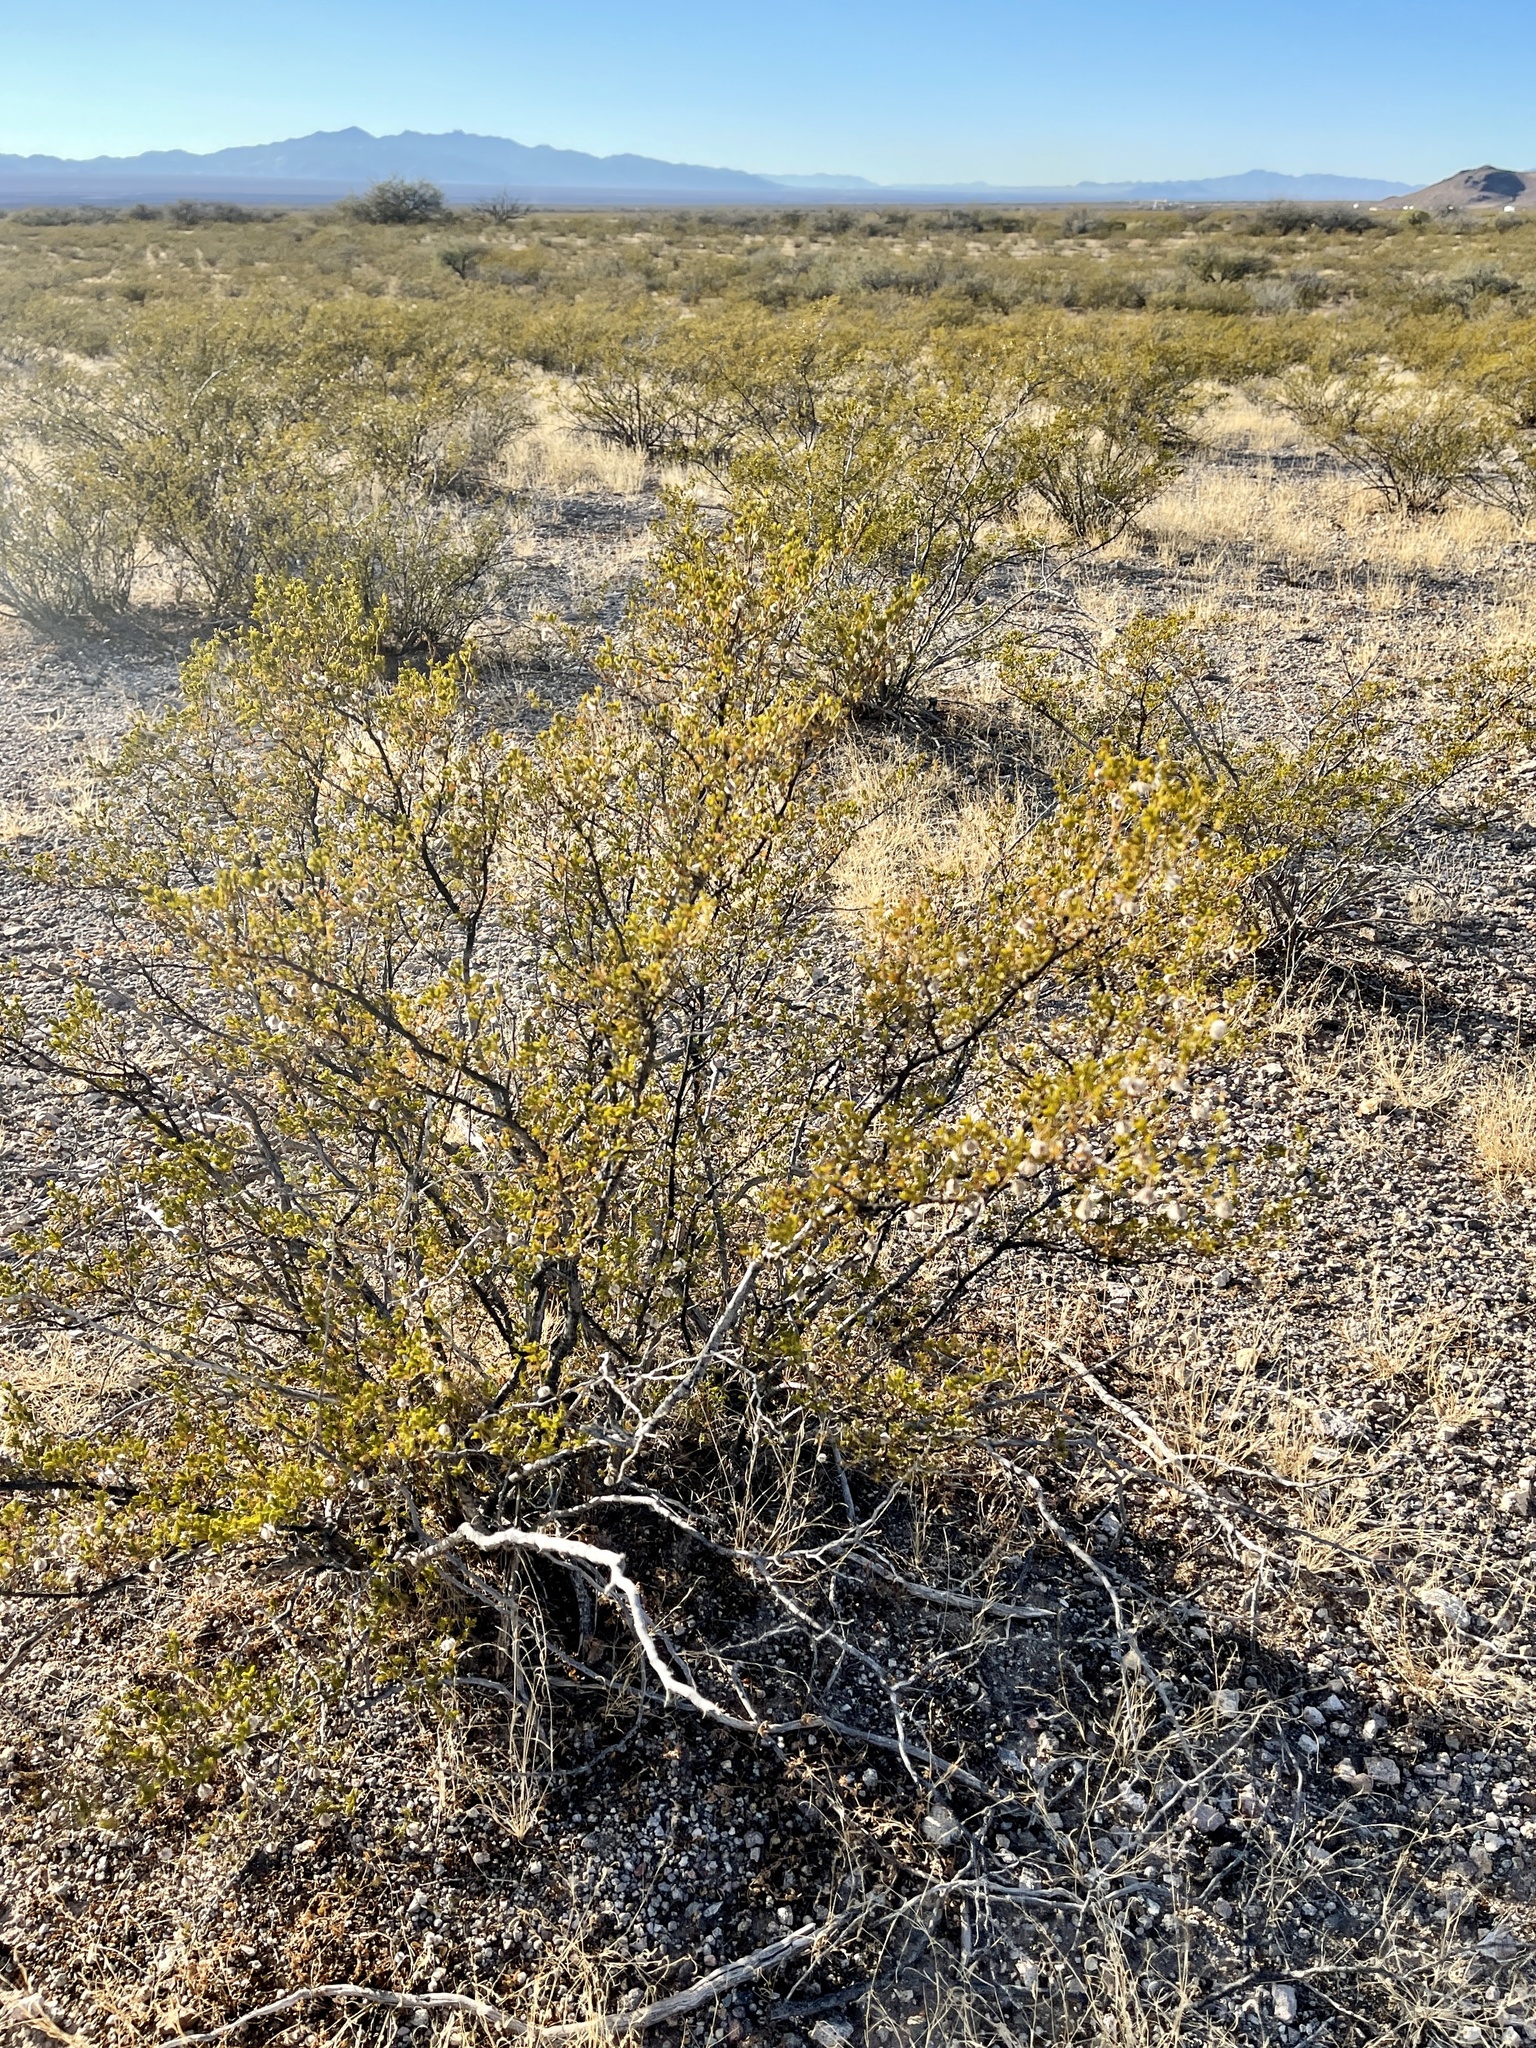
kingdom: Plantae
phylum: Tracheophyta
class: Magnoliopsida
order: Zygophyllales
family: Zygophyllaceae
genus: Larrea
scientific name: Larrea tridentata
